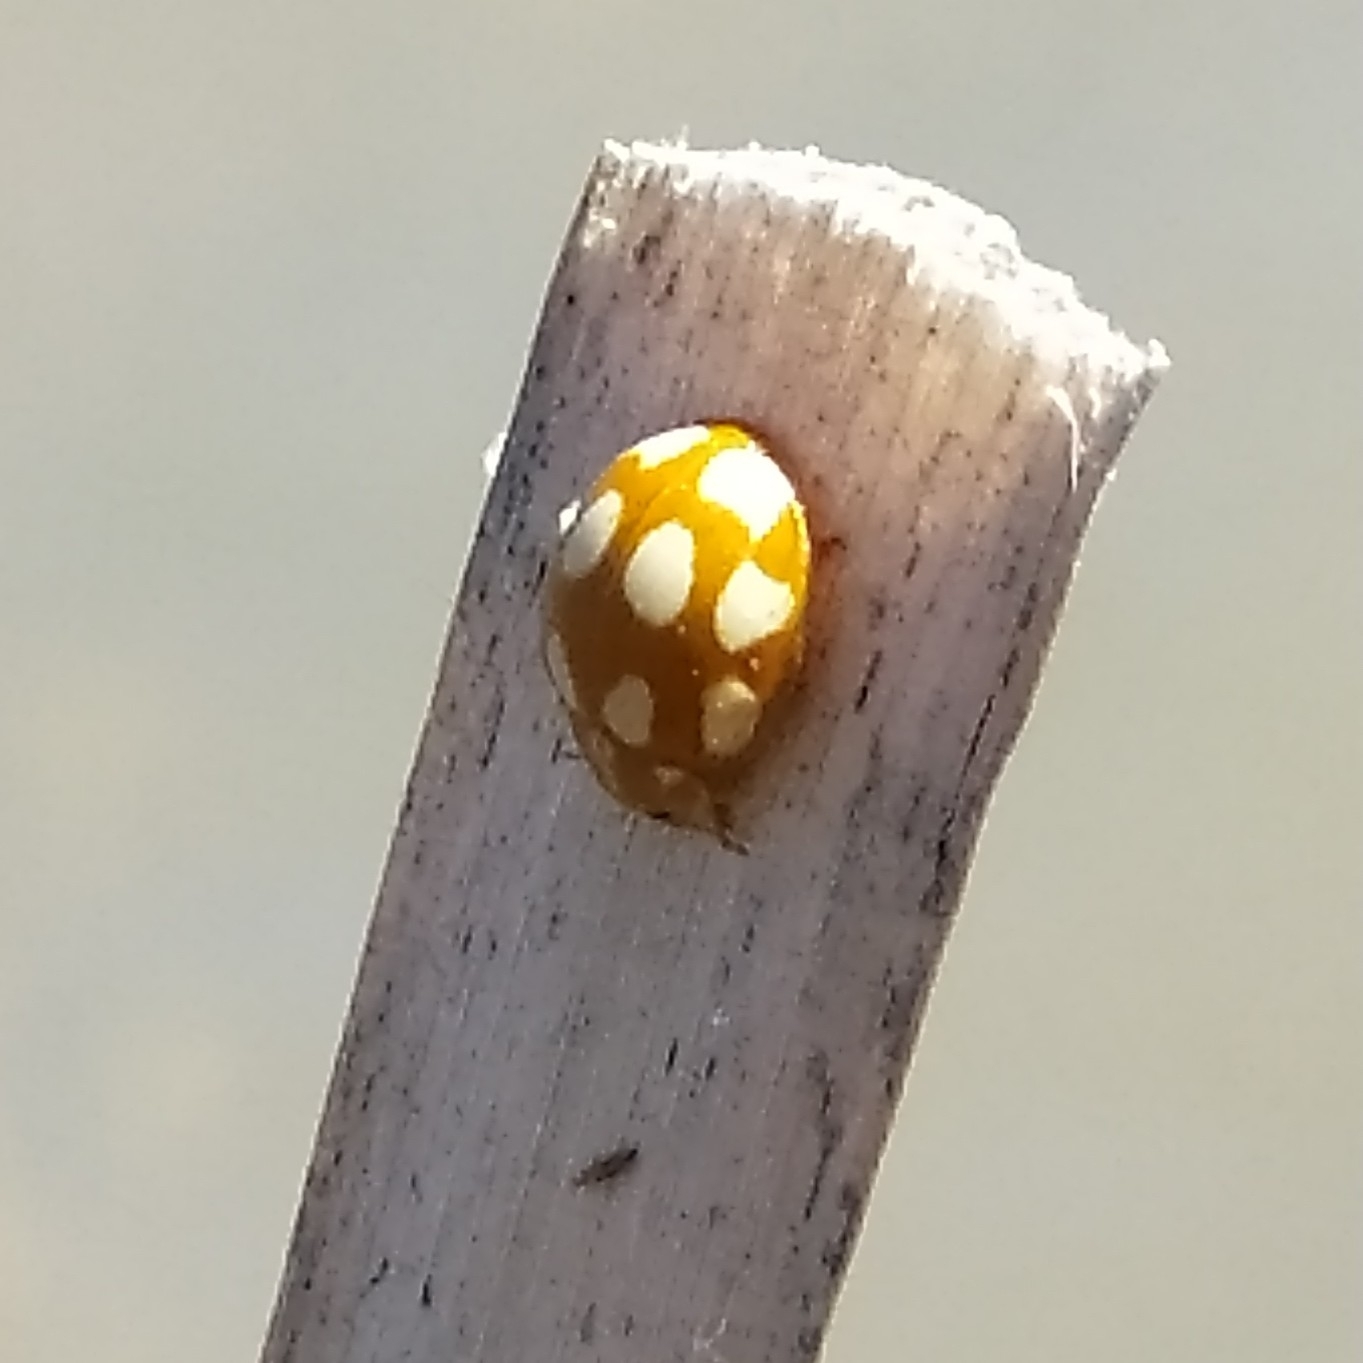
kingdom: Animalia
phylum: Arthropoda
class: Insecta
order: Coleoptera
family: Coccinellidae
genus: Calvia
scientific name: Calvia decemguttata
